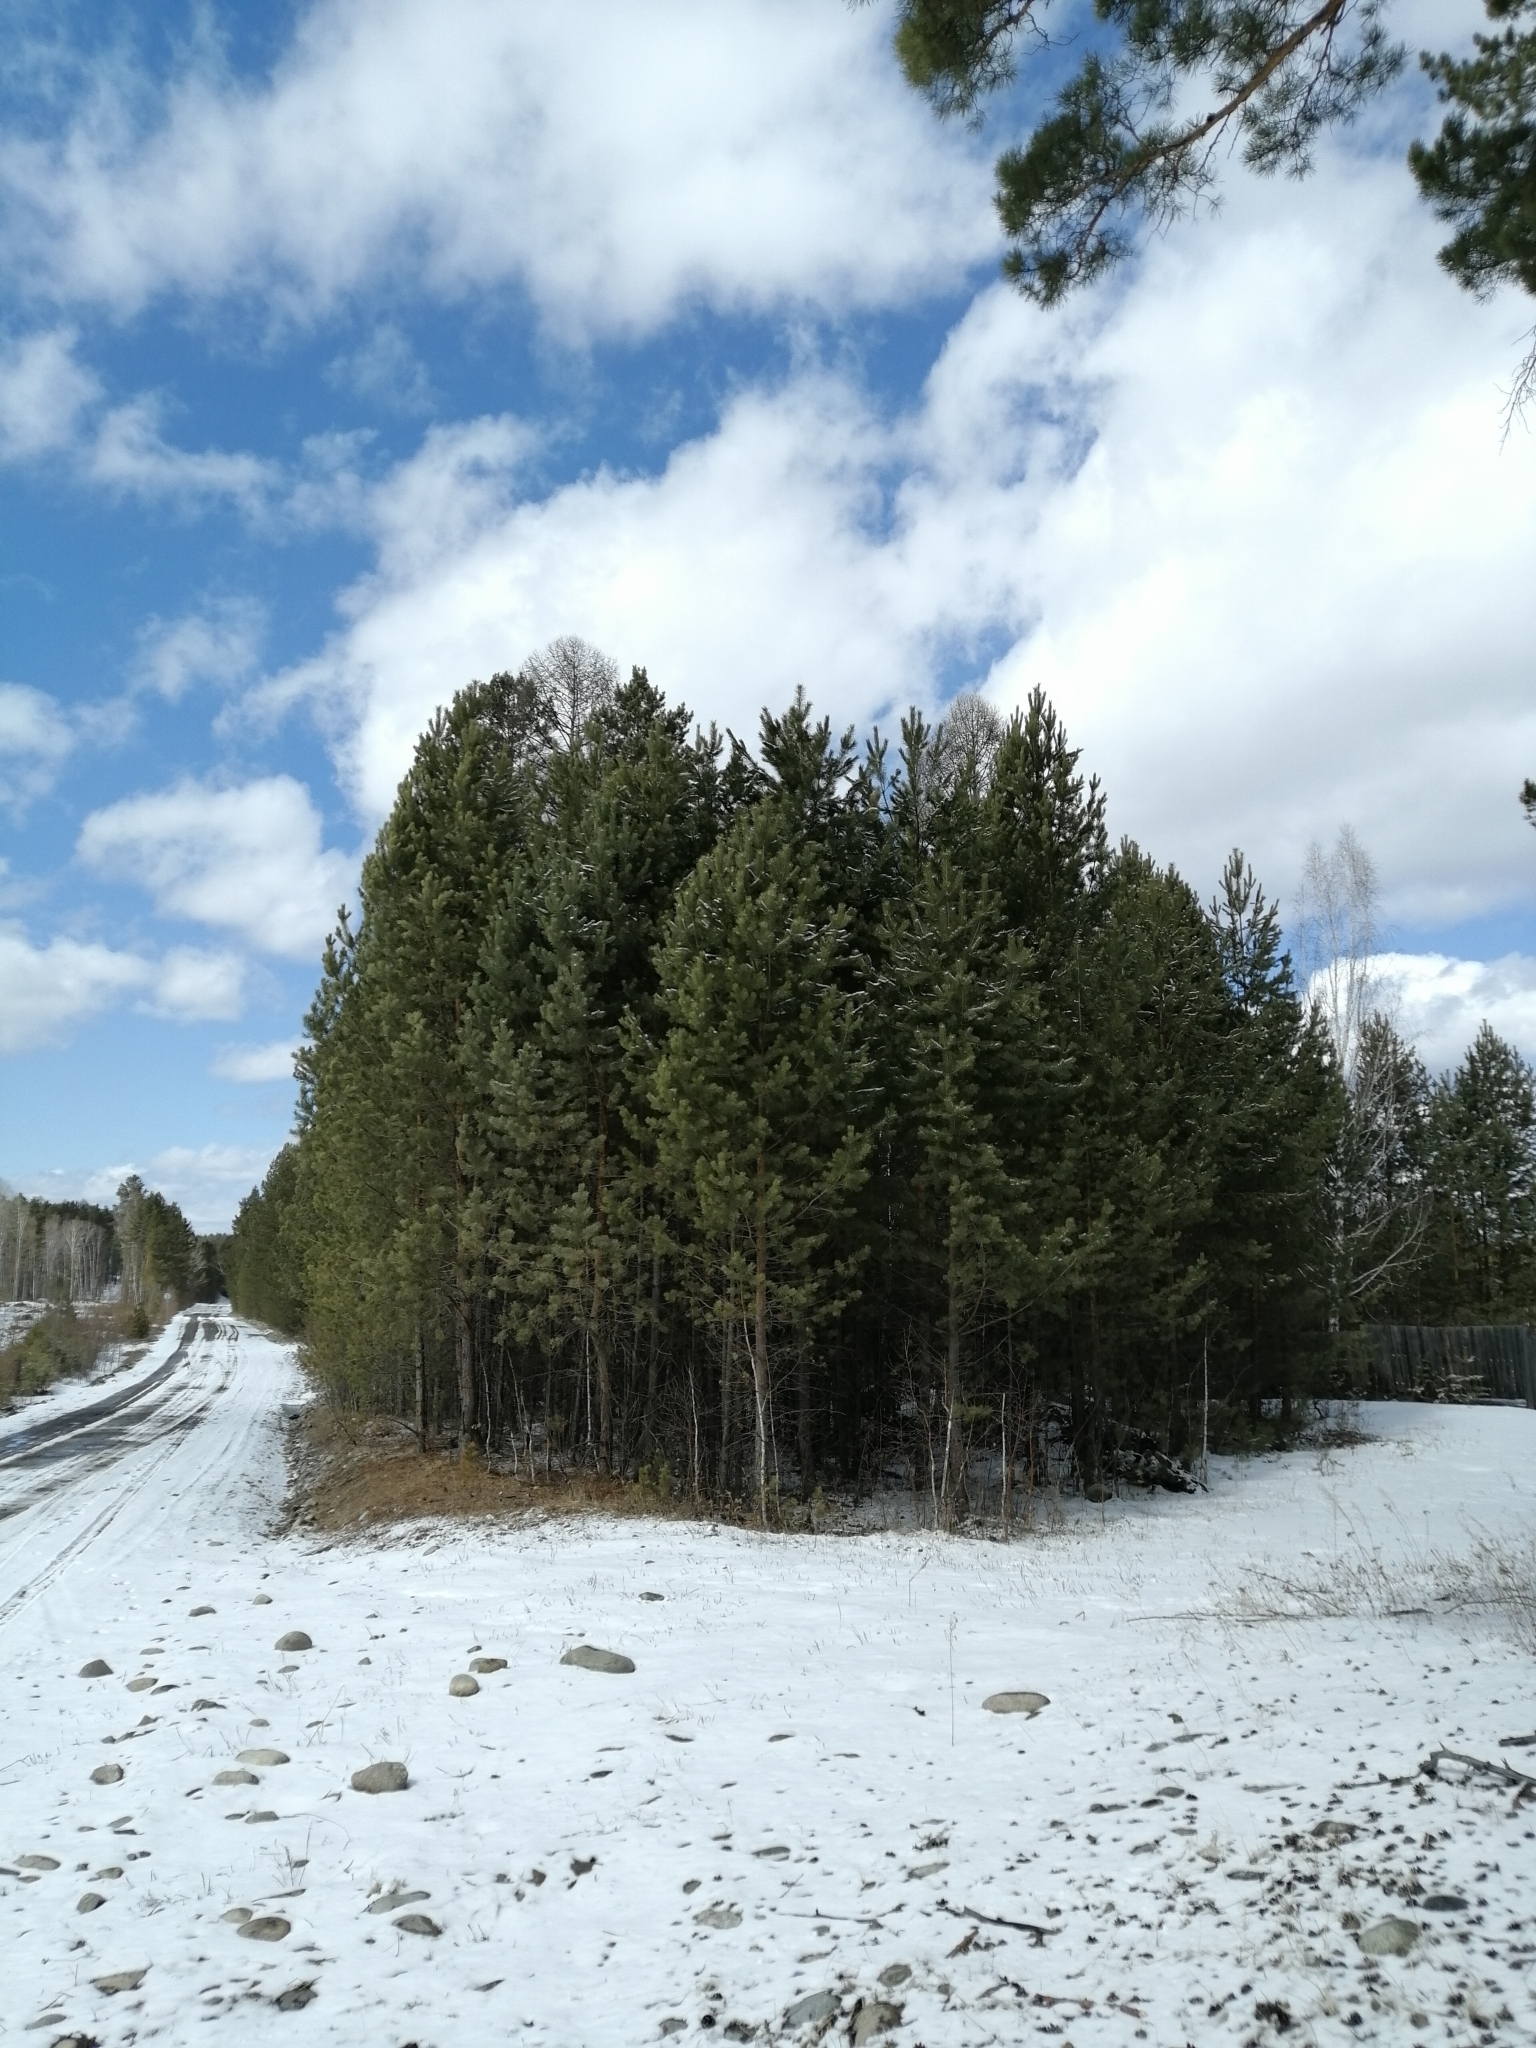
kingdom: Plantae
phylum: Tracheophyta
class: Pinopsida
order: Pinales
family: Pinaceae
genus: Pinus
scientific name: Pinus sylvestris
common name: Scots pine
